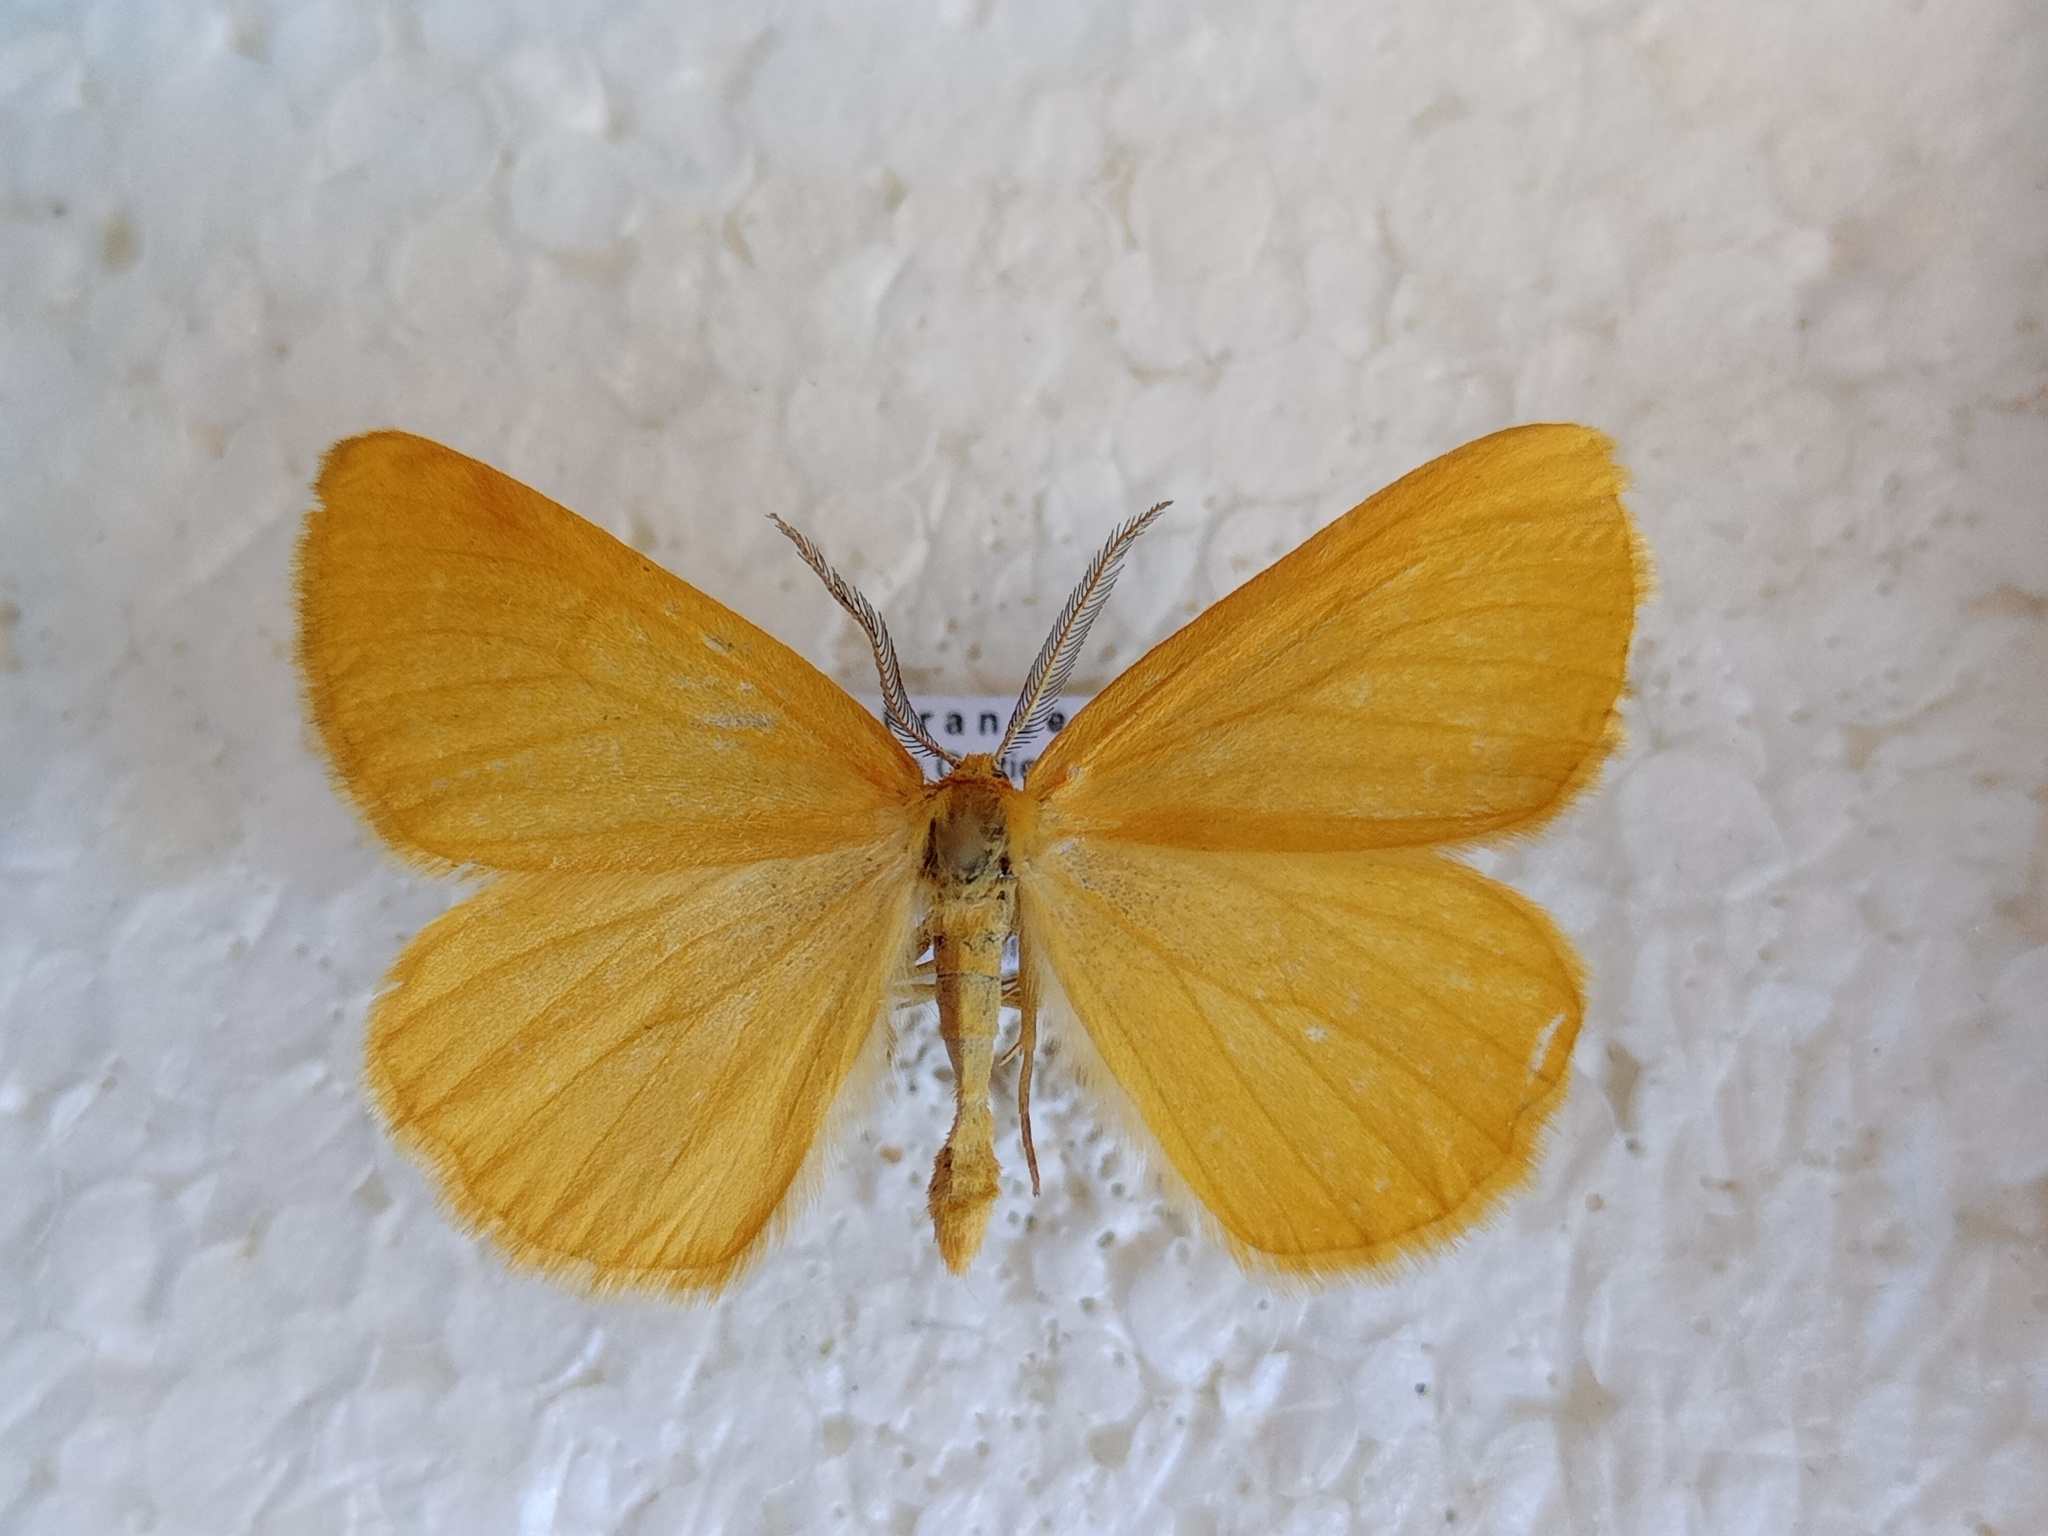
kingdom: Animalia
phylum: Arthropoda
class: Insecta
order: Lepidoptera
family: Geometridae
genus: Crocota
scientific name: Crocota tinctaria
